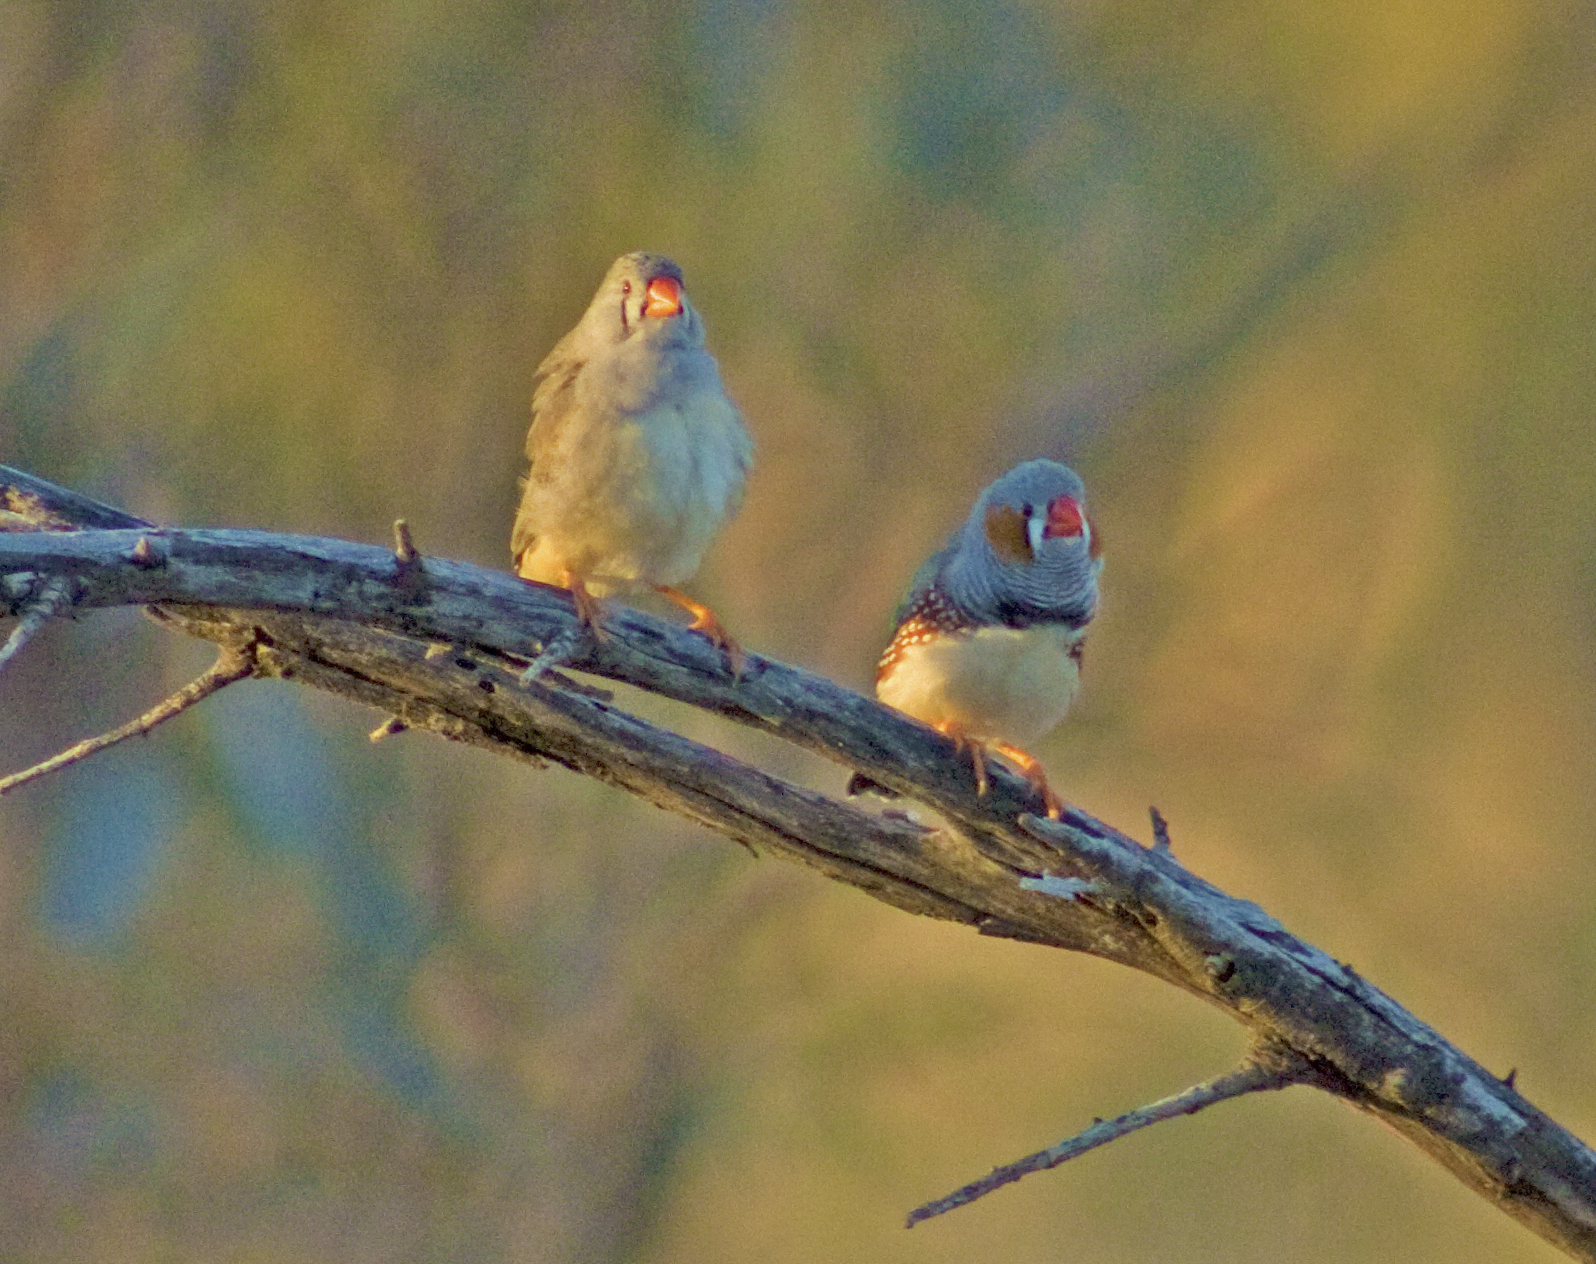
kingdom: Animalia
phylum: Chordata
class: Aves
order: Passeriformes
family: Estrildidae
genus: Taeniopygia
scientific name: Taeniopygia guttata
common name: Zebra finch
